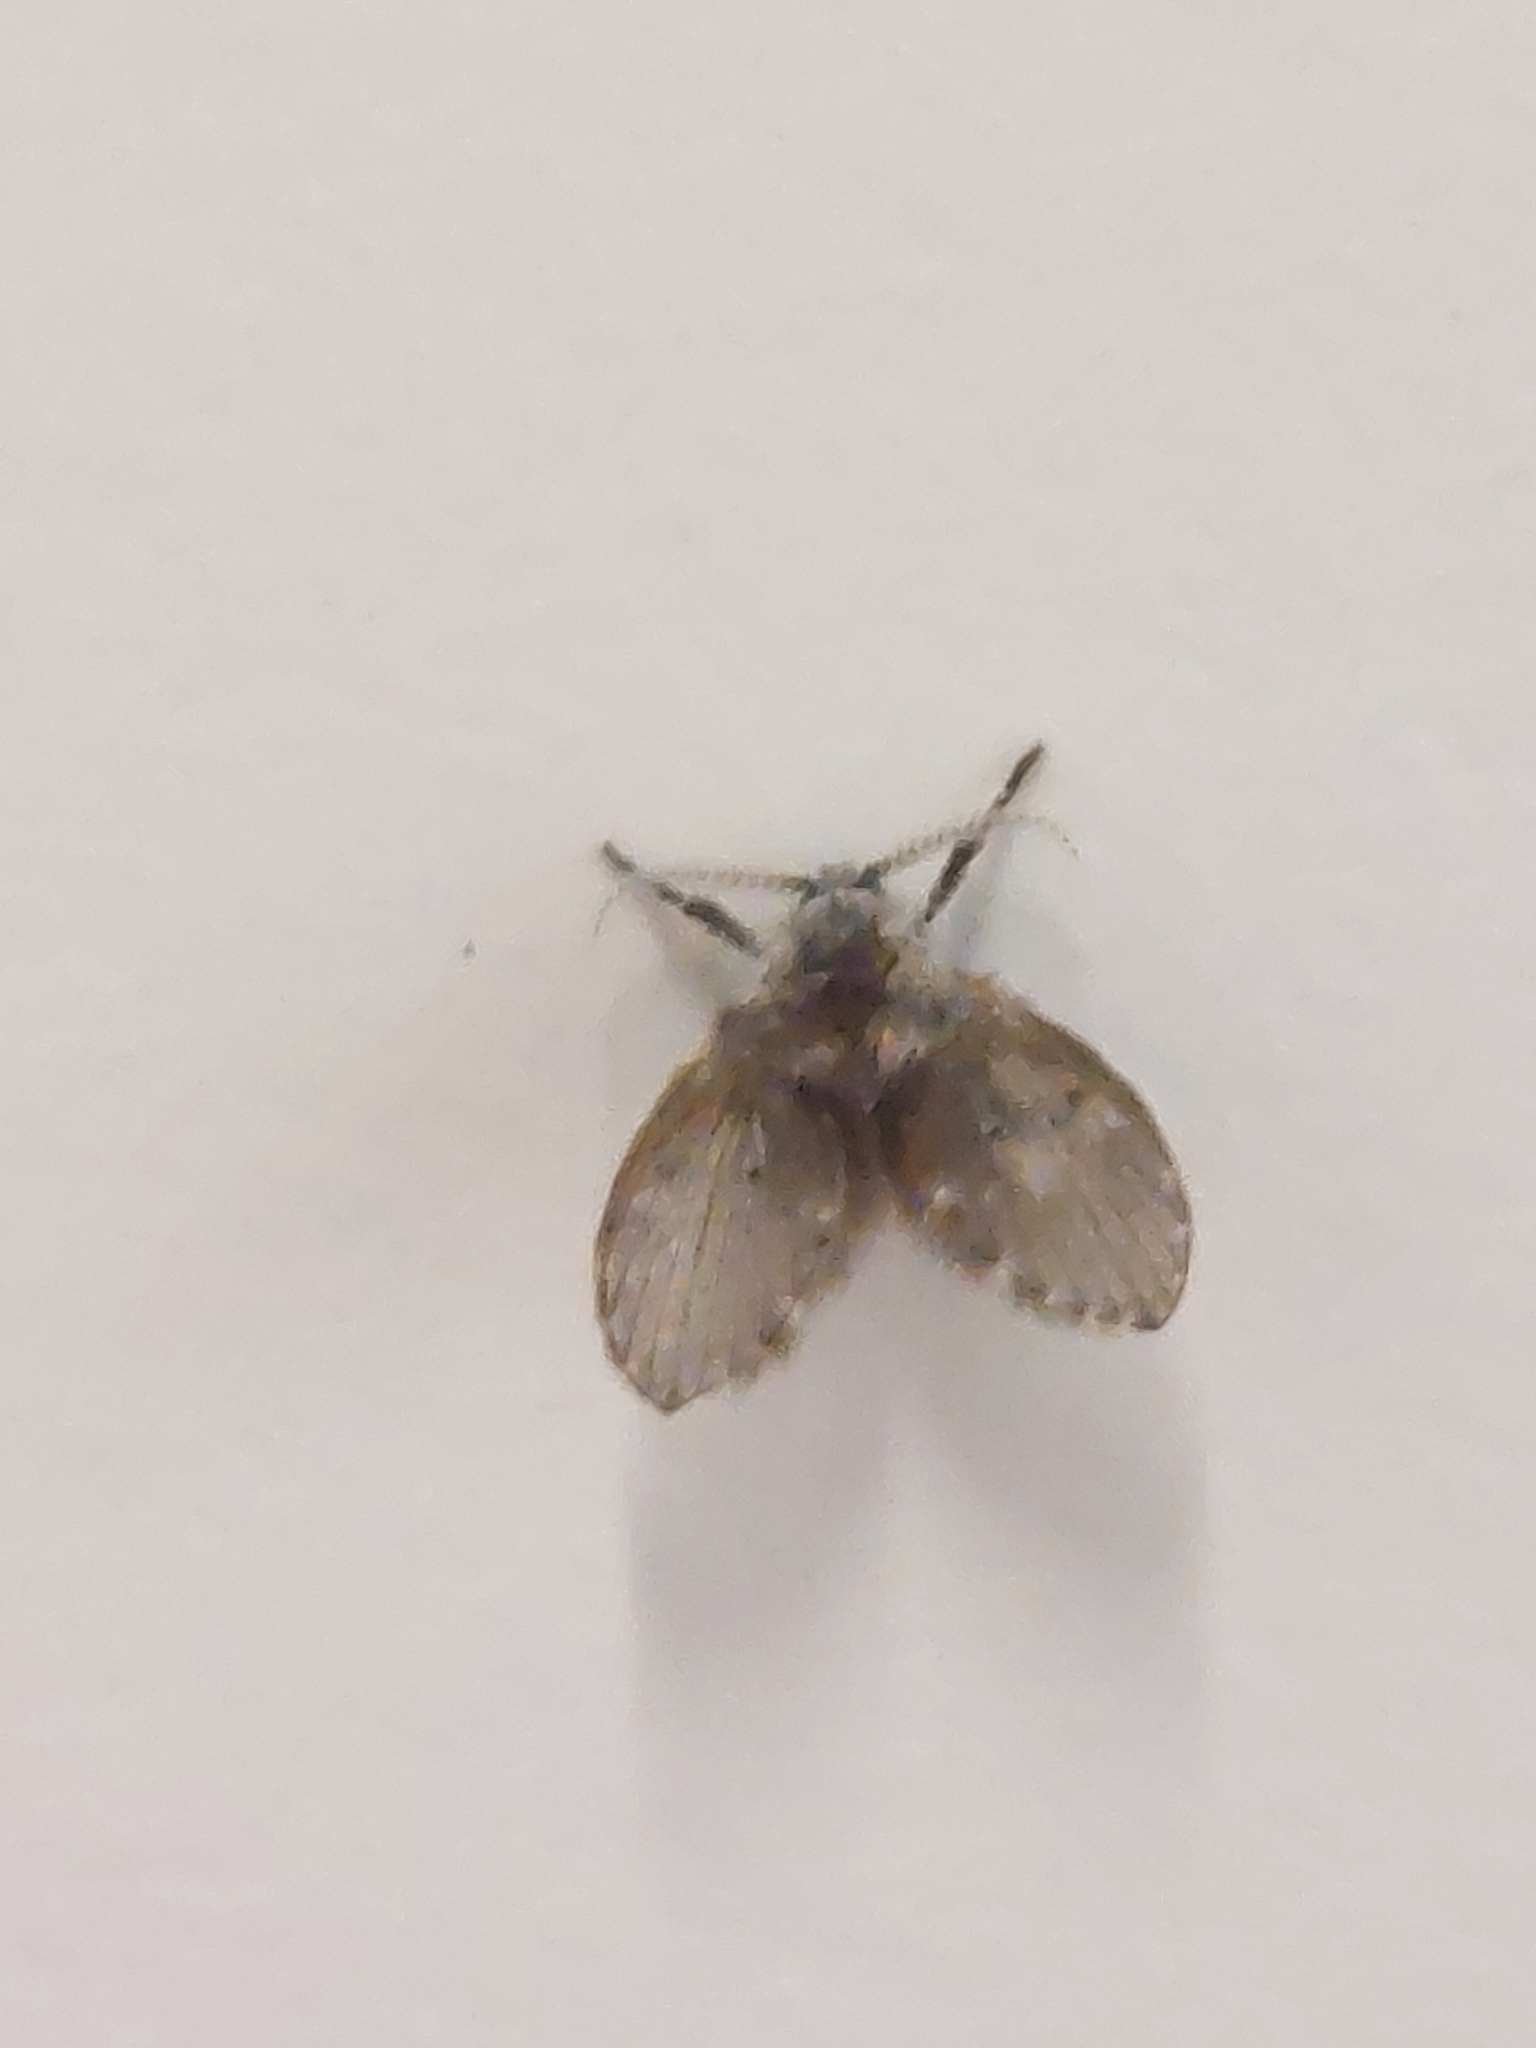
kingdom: Animalia
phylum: Arthropoda
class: Insecta
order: Diptera
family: Psychodidae
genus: Clogmia
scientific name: Clogmia albipunctatus
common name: White-spotted moth fly
